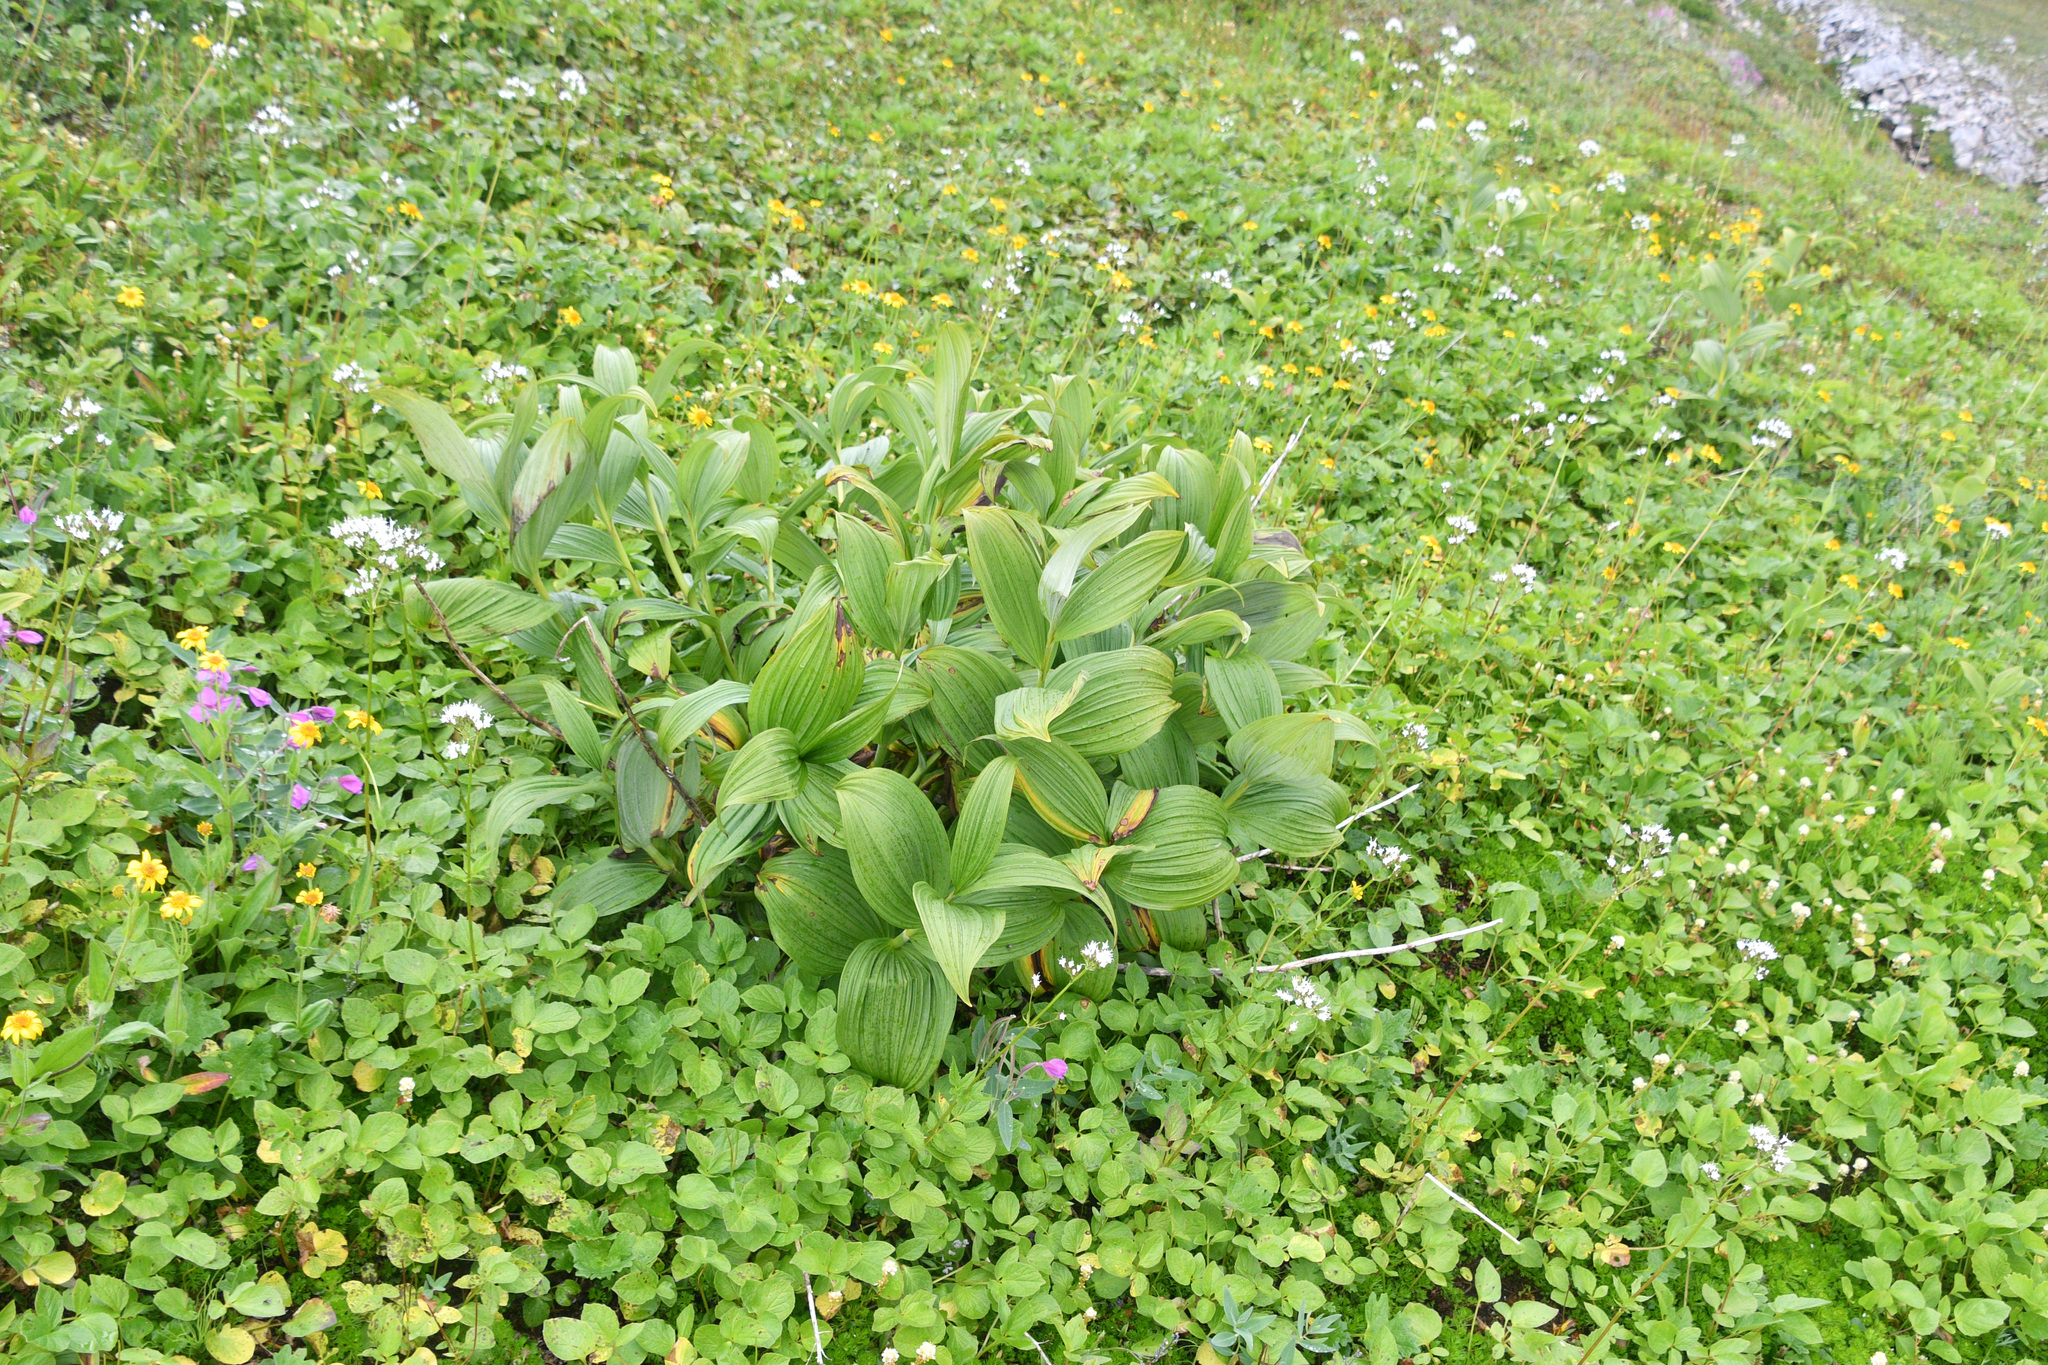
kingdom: Plantae
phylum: Tracheophyta
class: Liliopsida
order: Liliales
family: Melanthiaceae
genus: Veratrum
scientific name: Veratrum viride
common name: American false hellebore
